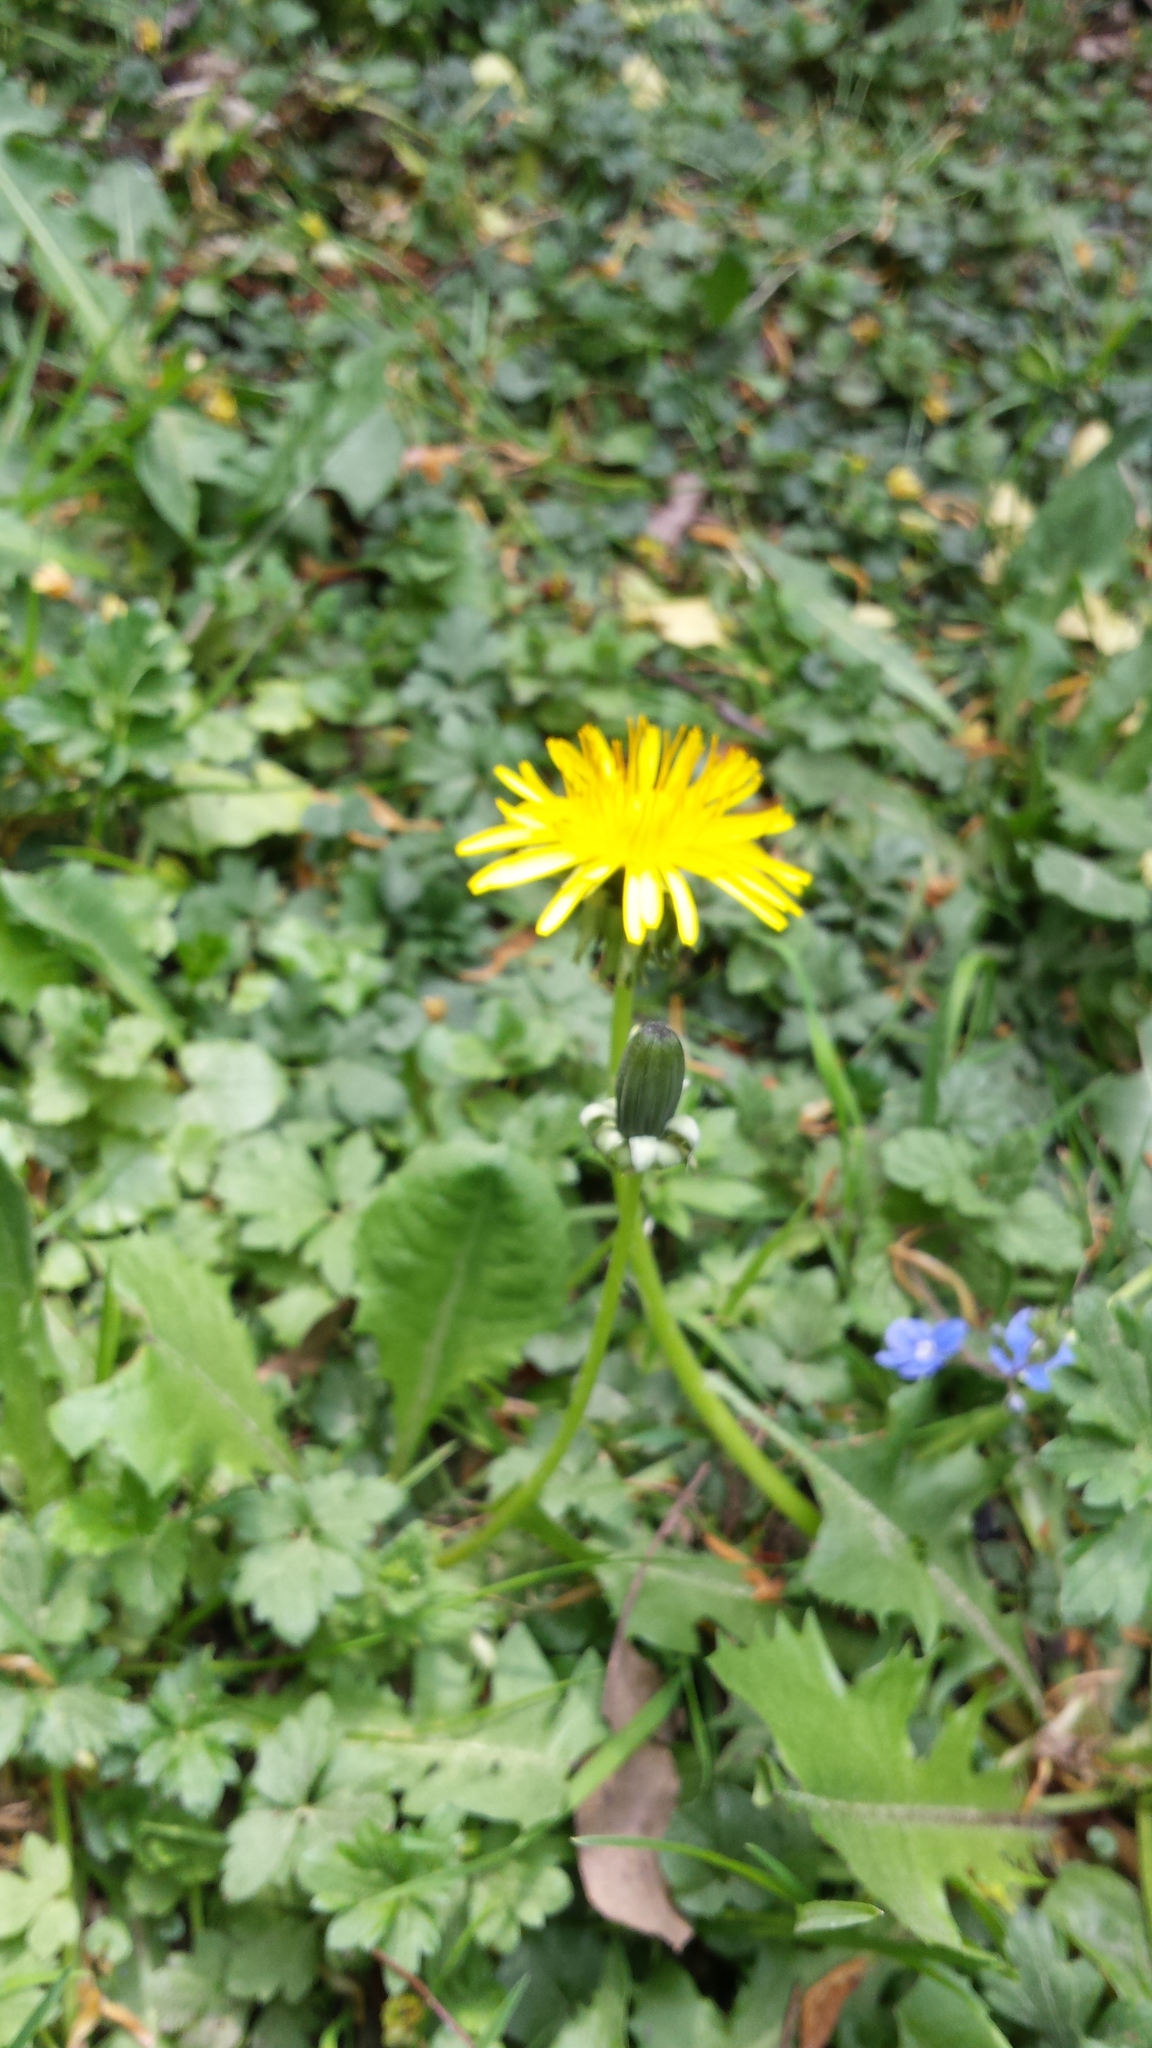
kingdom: Plantae
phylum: Tracheophyta
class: Magnoliopsida
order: Asterales
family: Asteraceae
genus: Taraxacum
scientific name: Taraxacum officinale
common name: Common dandelion
